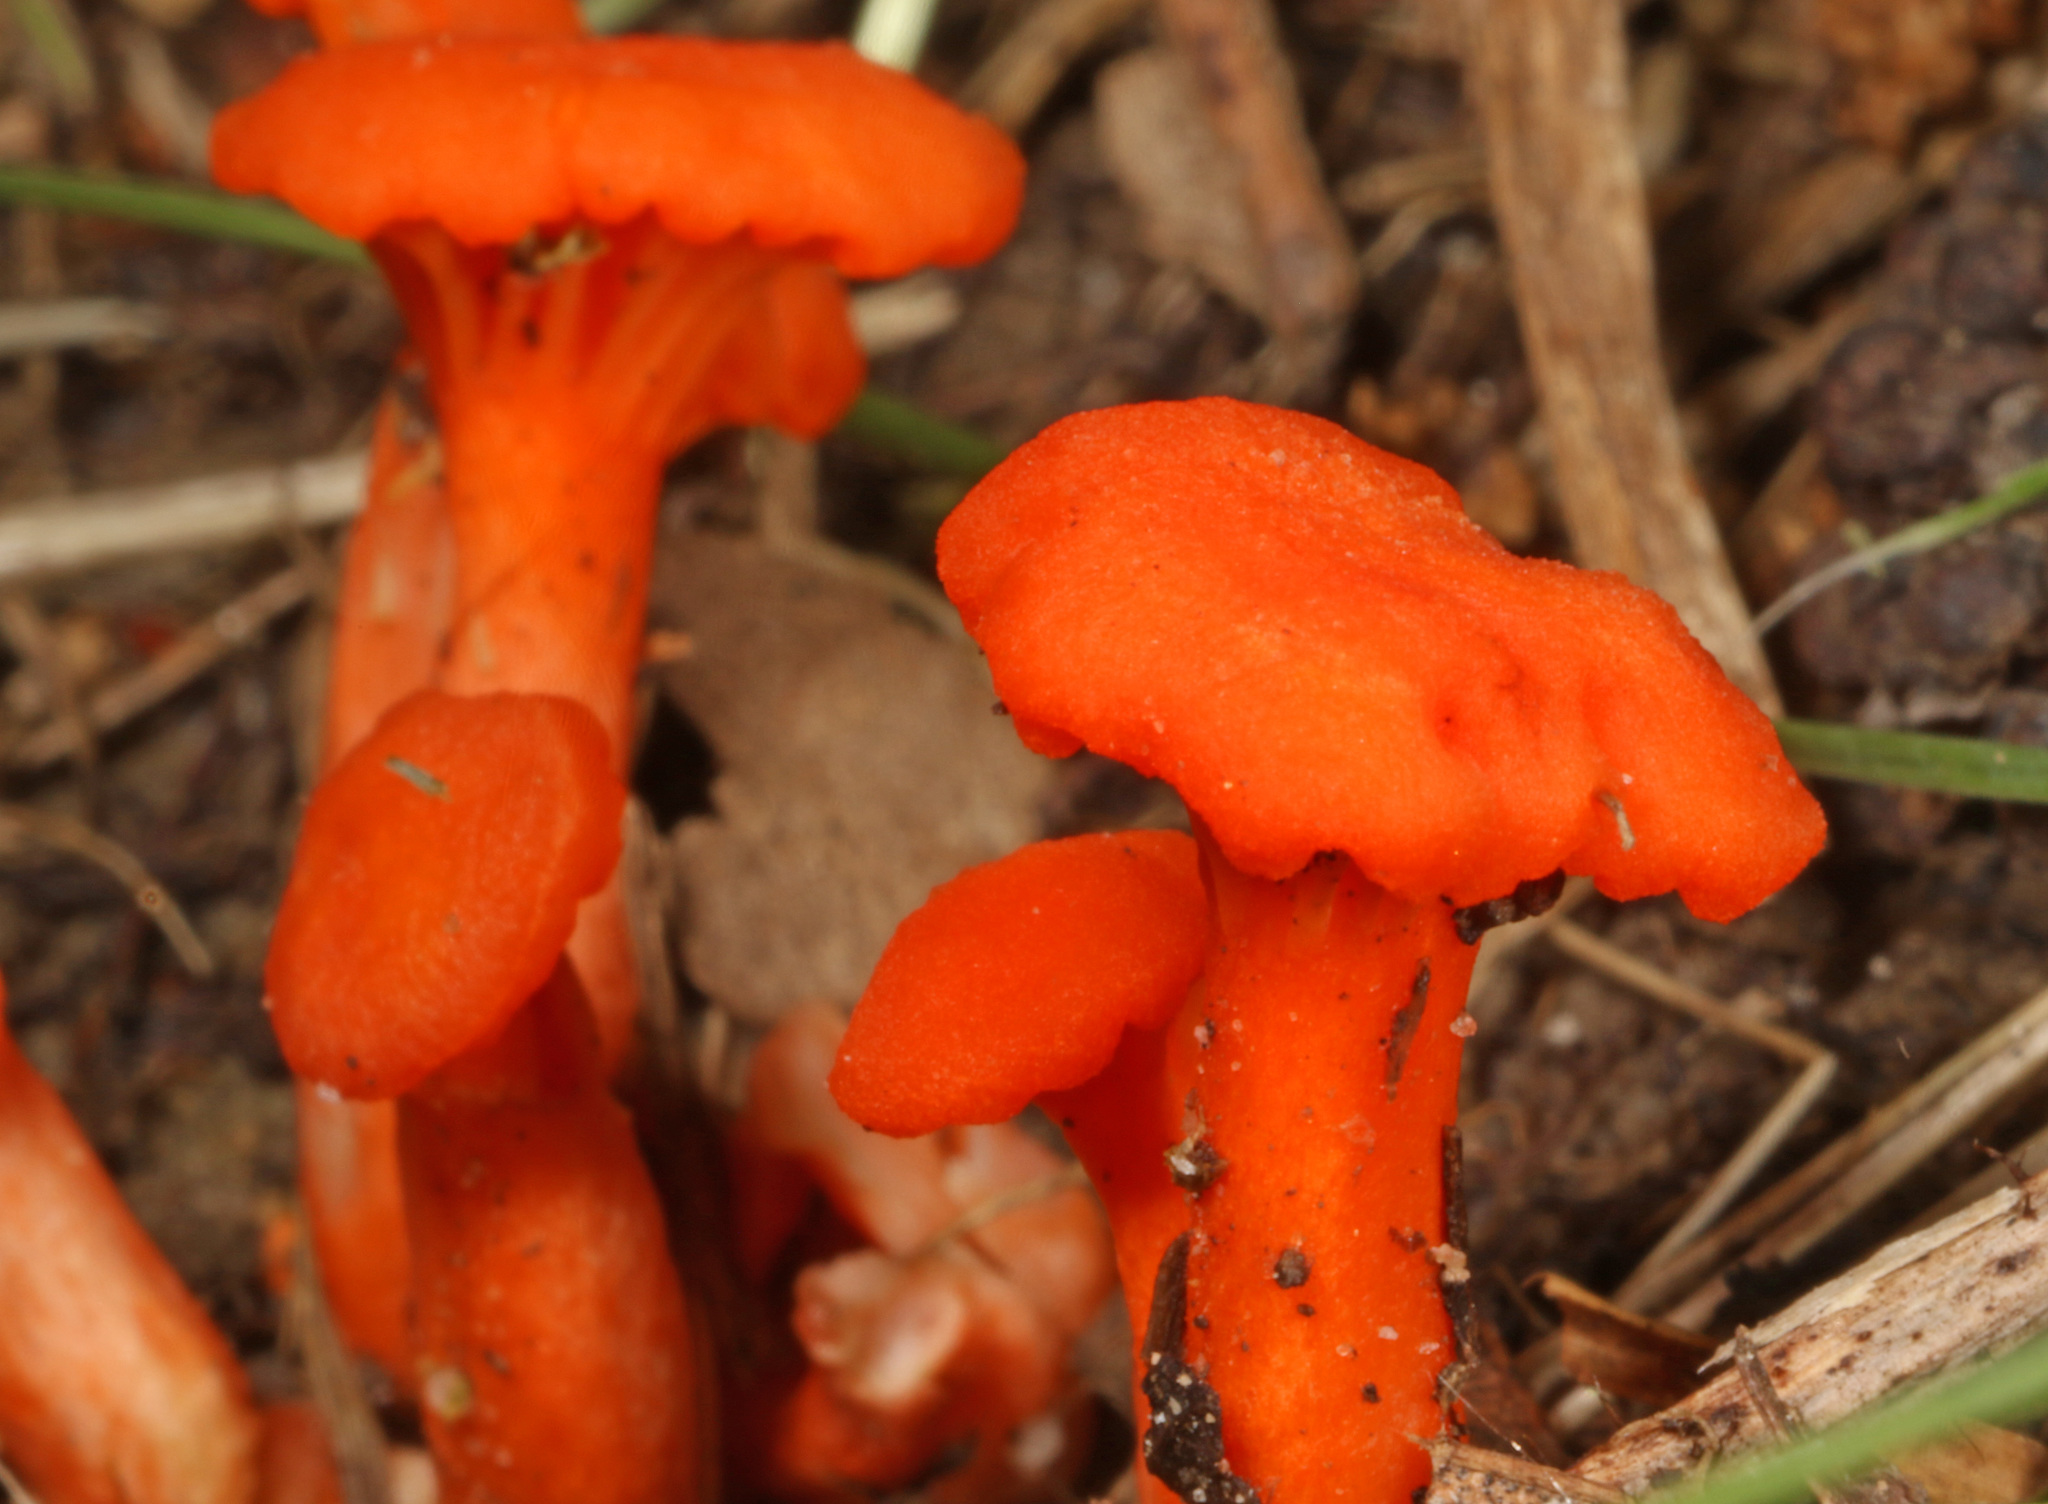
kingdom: Fungi
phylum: Basidiomycota
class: Agaricomycetes
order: Cantharellales
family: Hydnaceae
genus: Cantharellus
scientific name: Cantharellus cinnabarinus
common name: Cinnabar chanterelle
